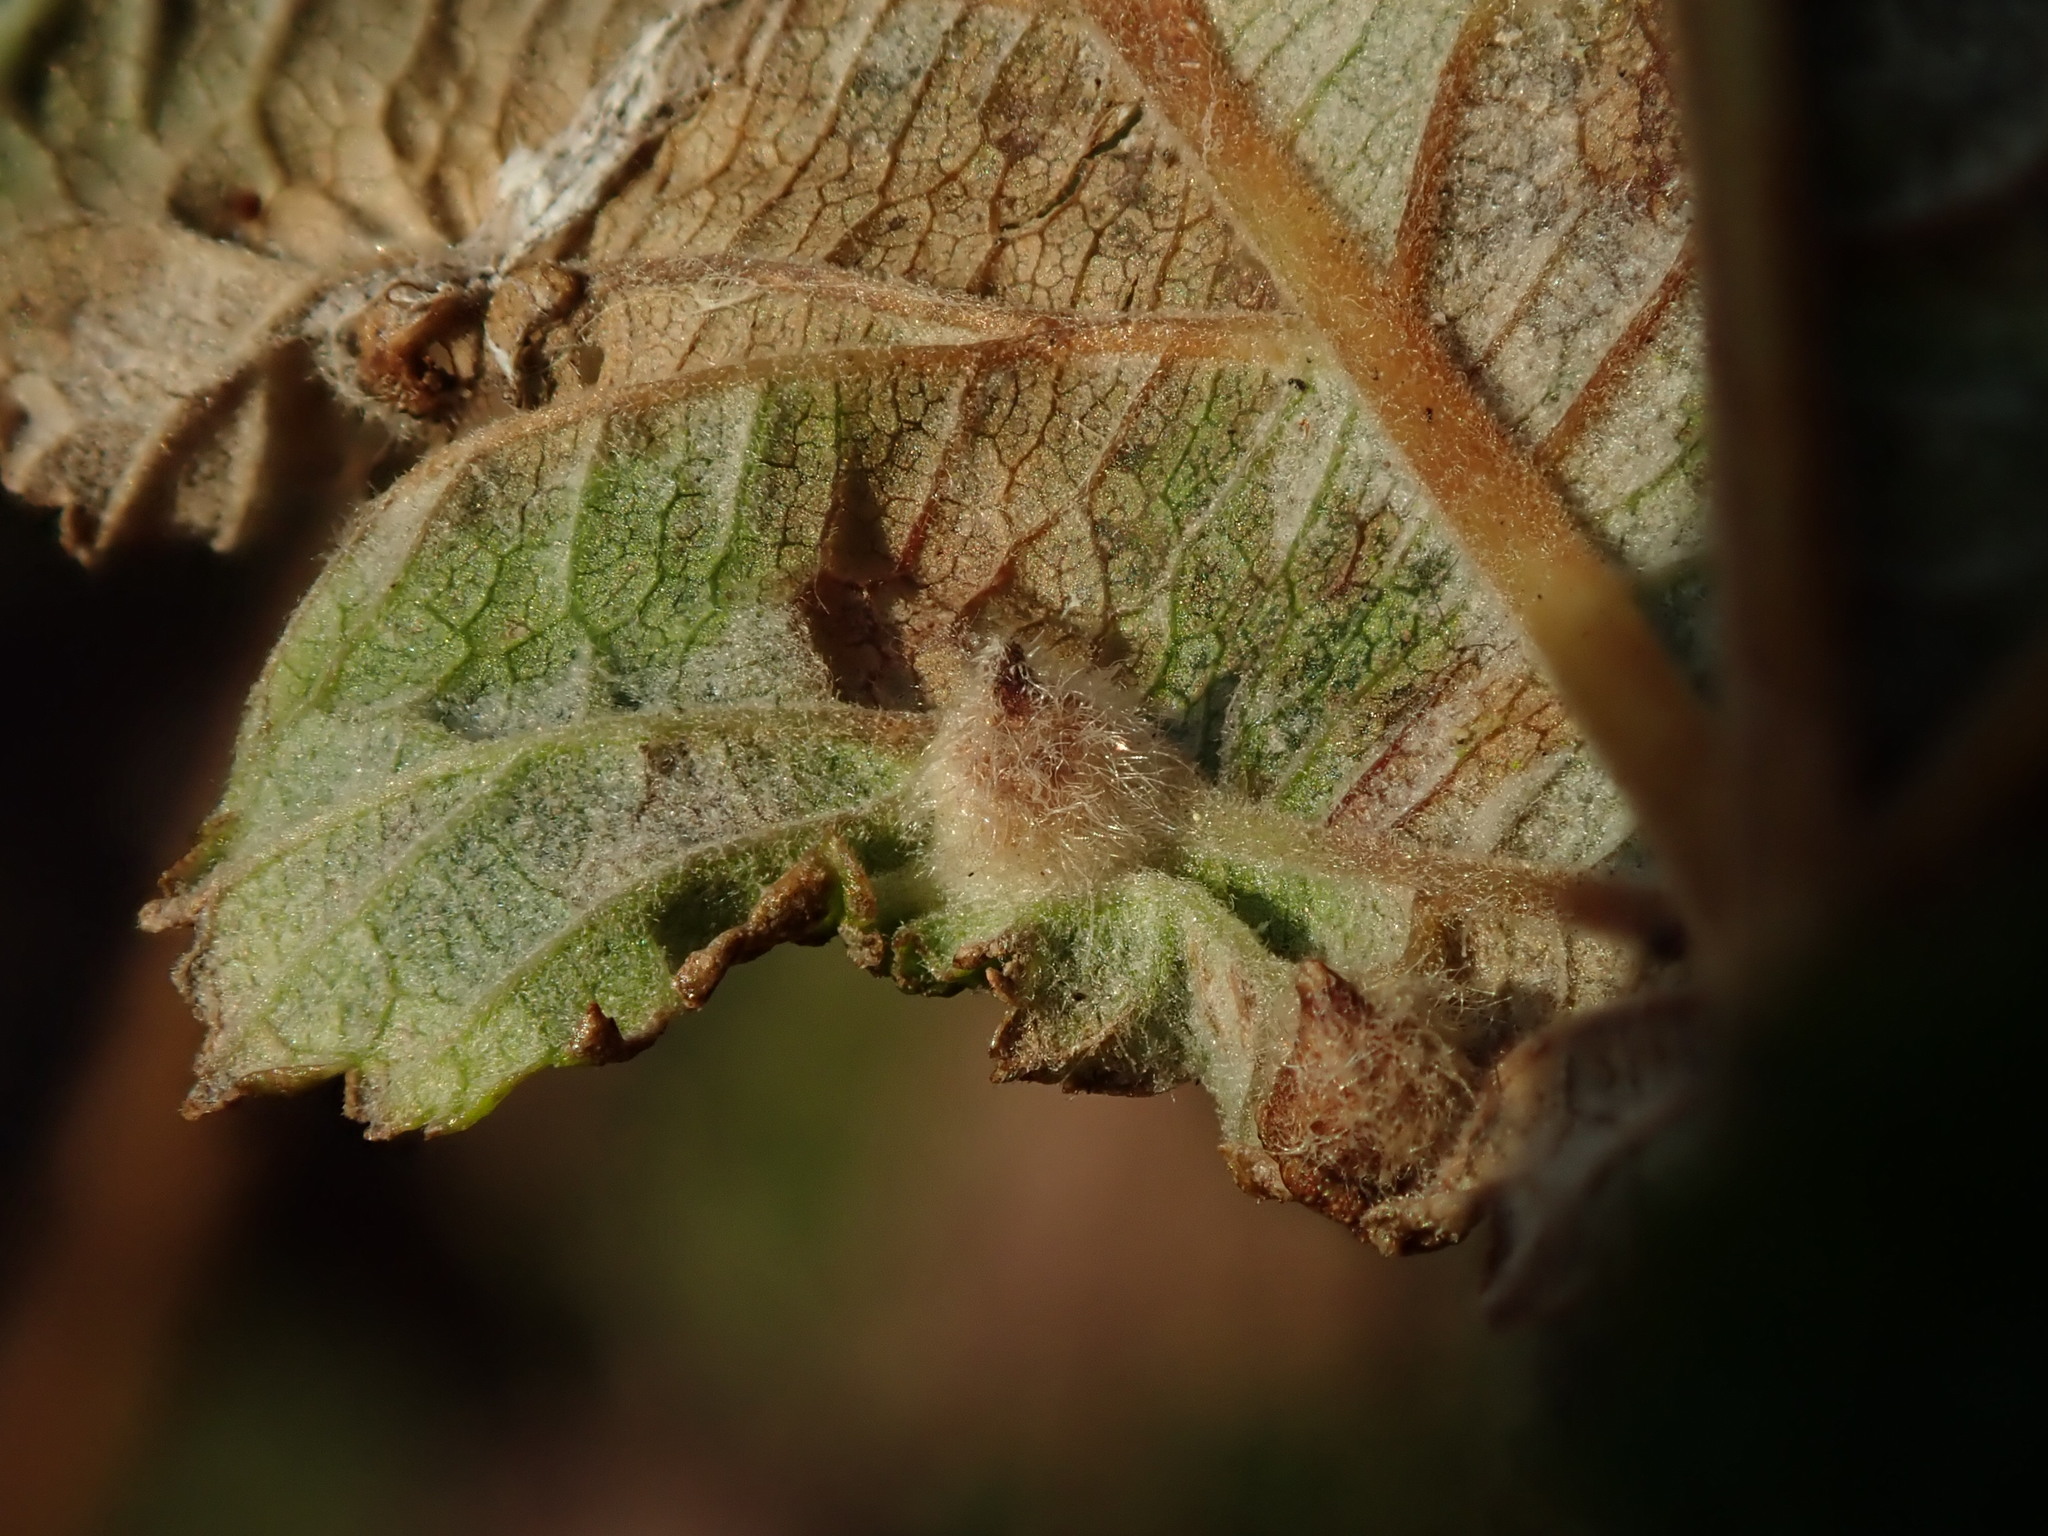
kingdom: Animalia
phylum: Arthropoda
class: Insecta
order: Diptera
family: Cecidomyiidae
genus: Dasineura
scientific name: Dasineura ulmaria
